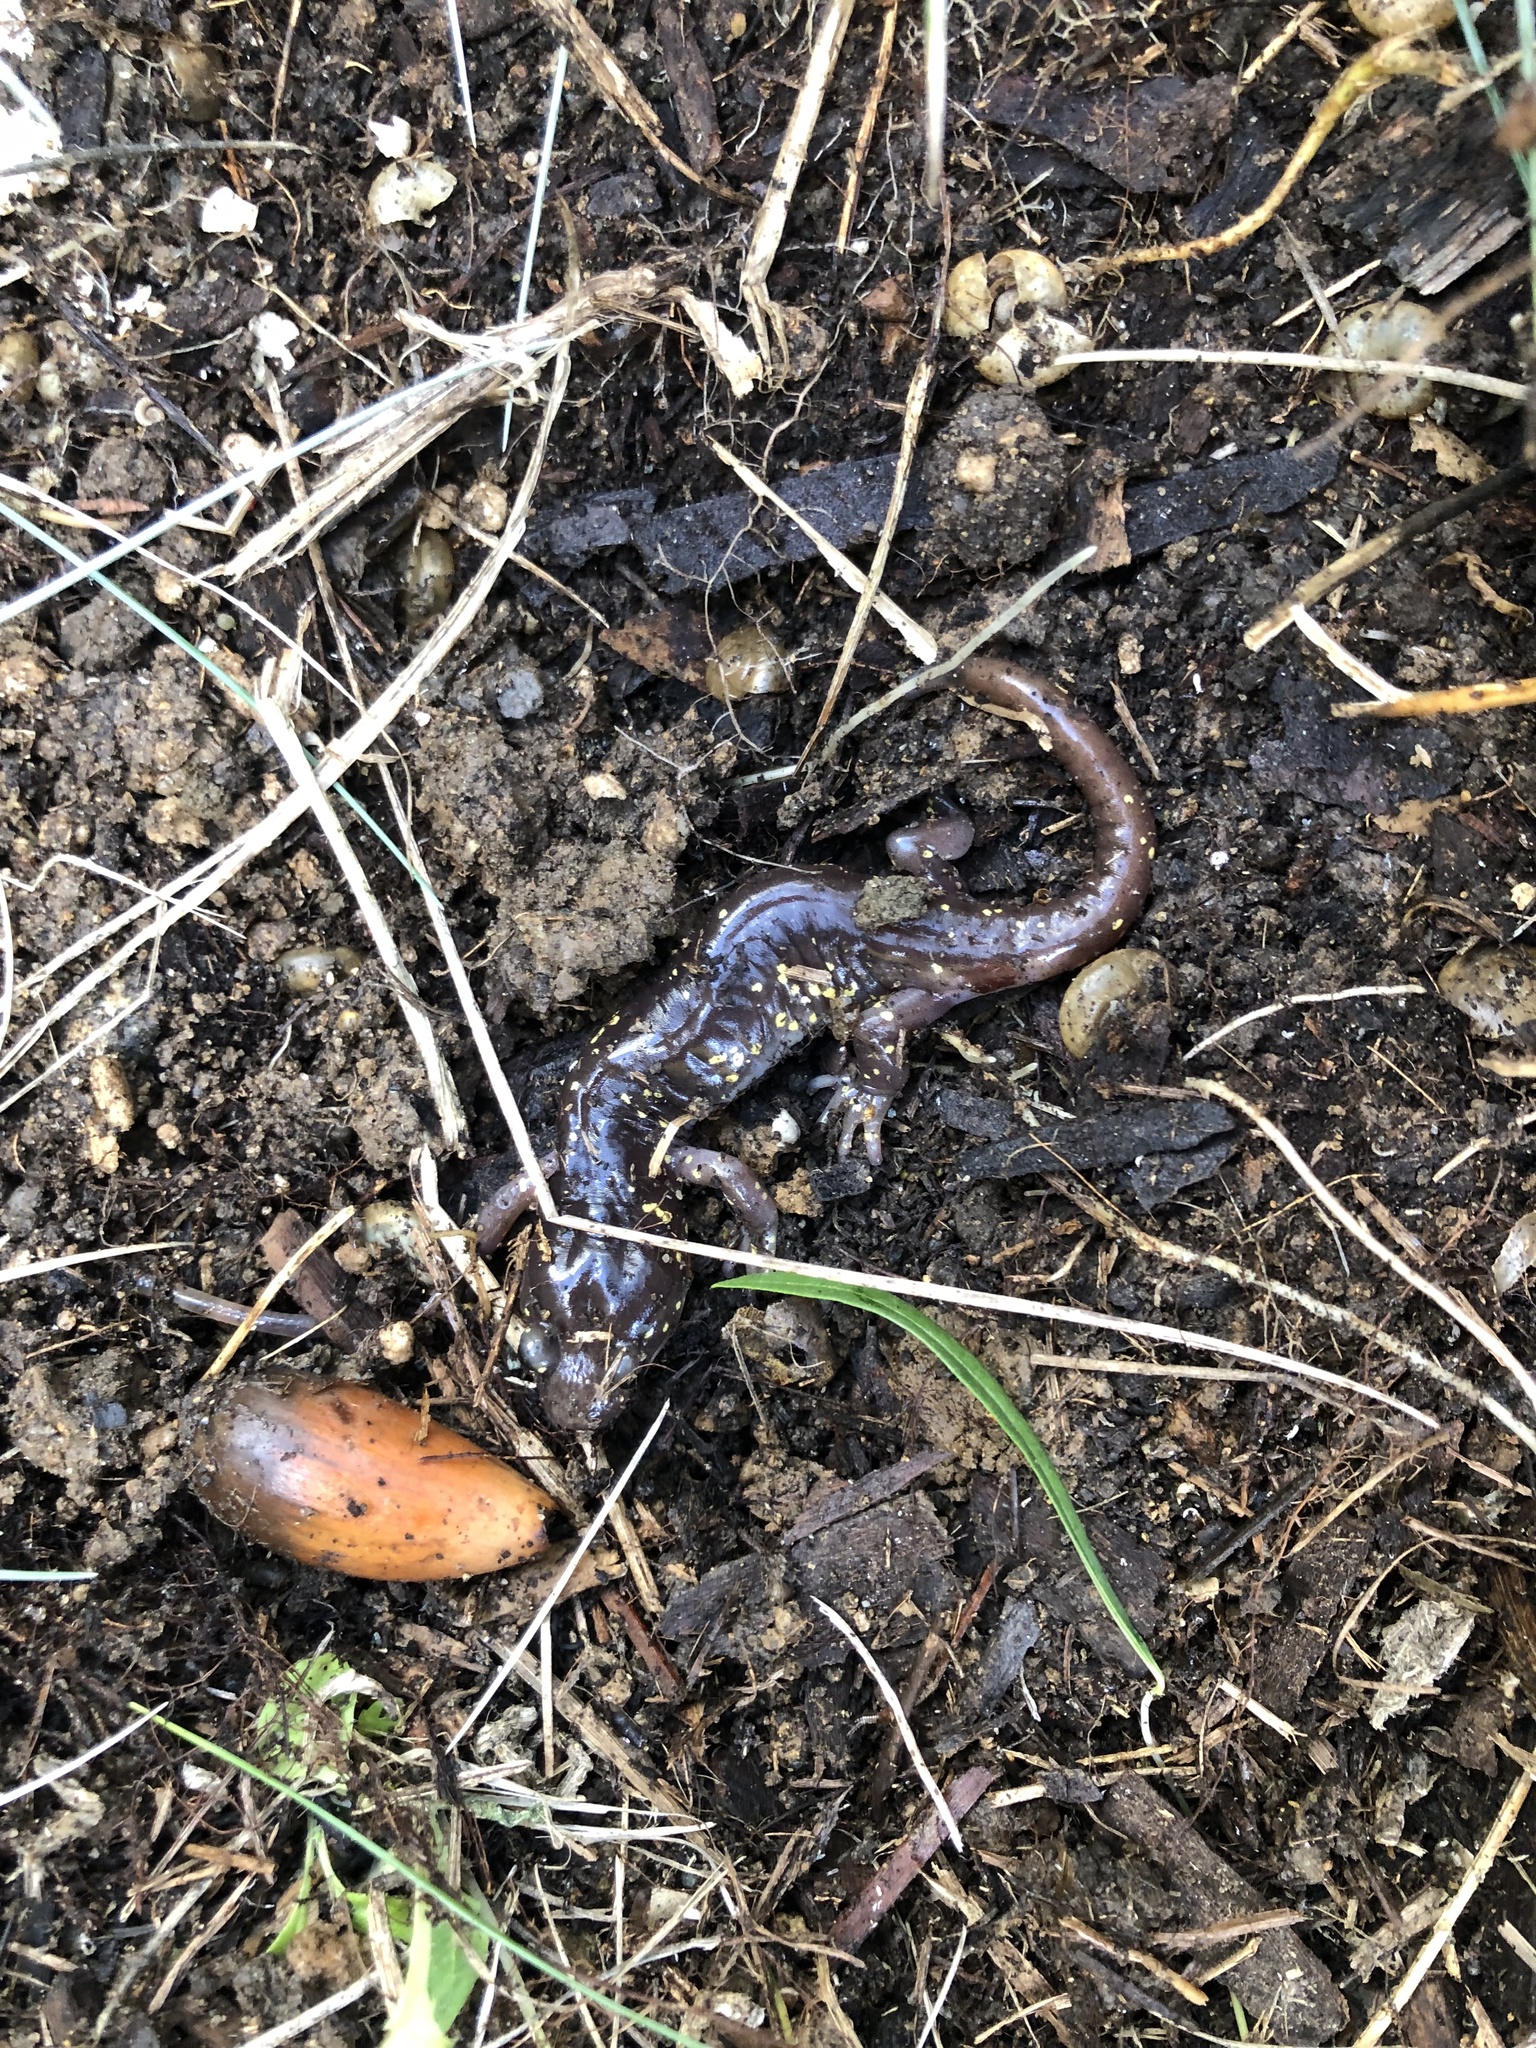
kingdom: Animalia
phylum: Chordata
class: Amphibia
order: Caudata
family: Plethodontidae
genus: Aneides
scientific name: Aneides lugubris
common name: Arboreal salamander
